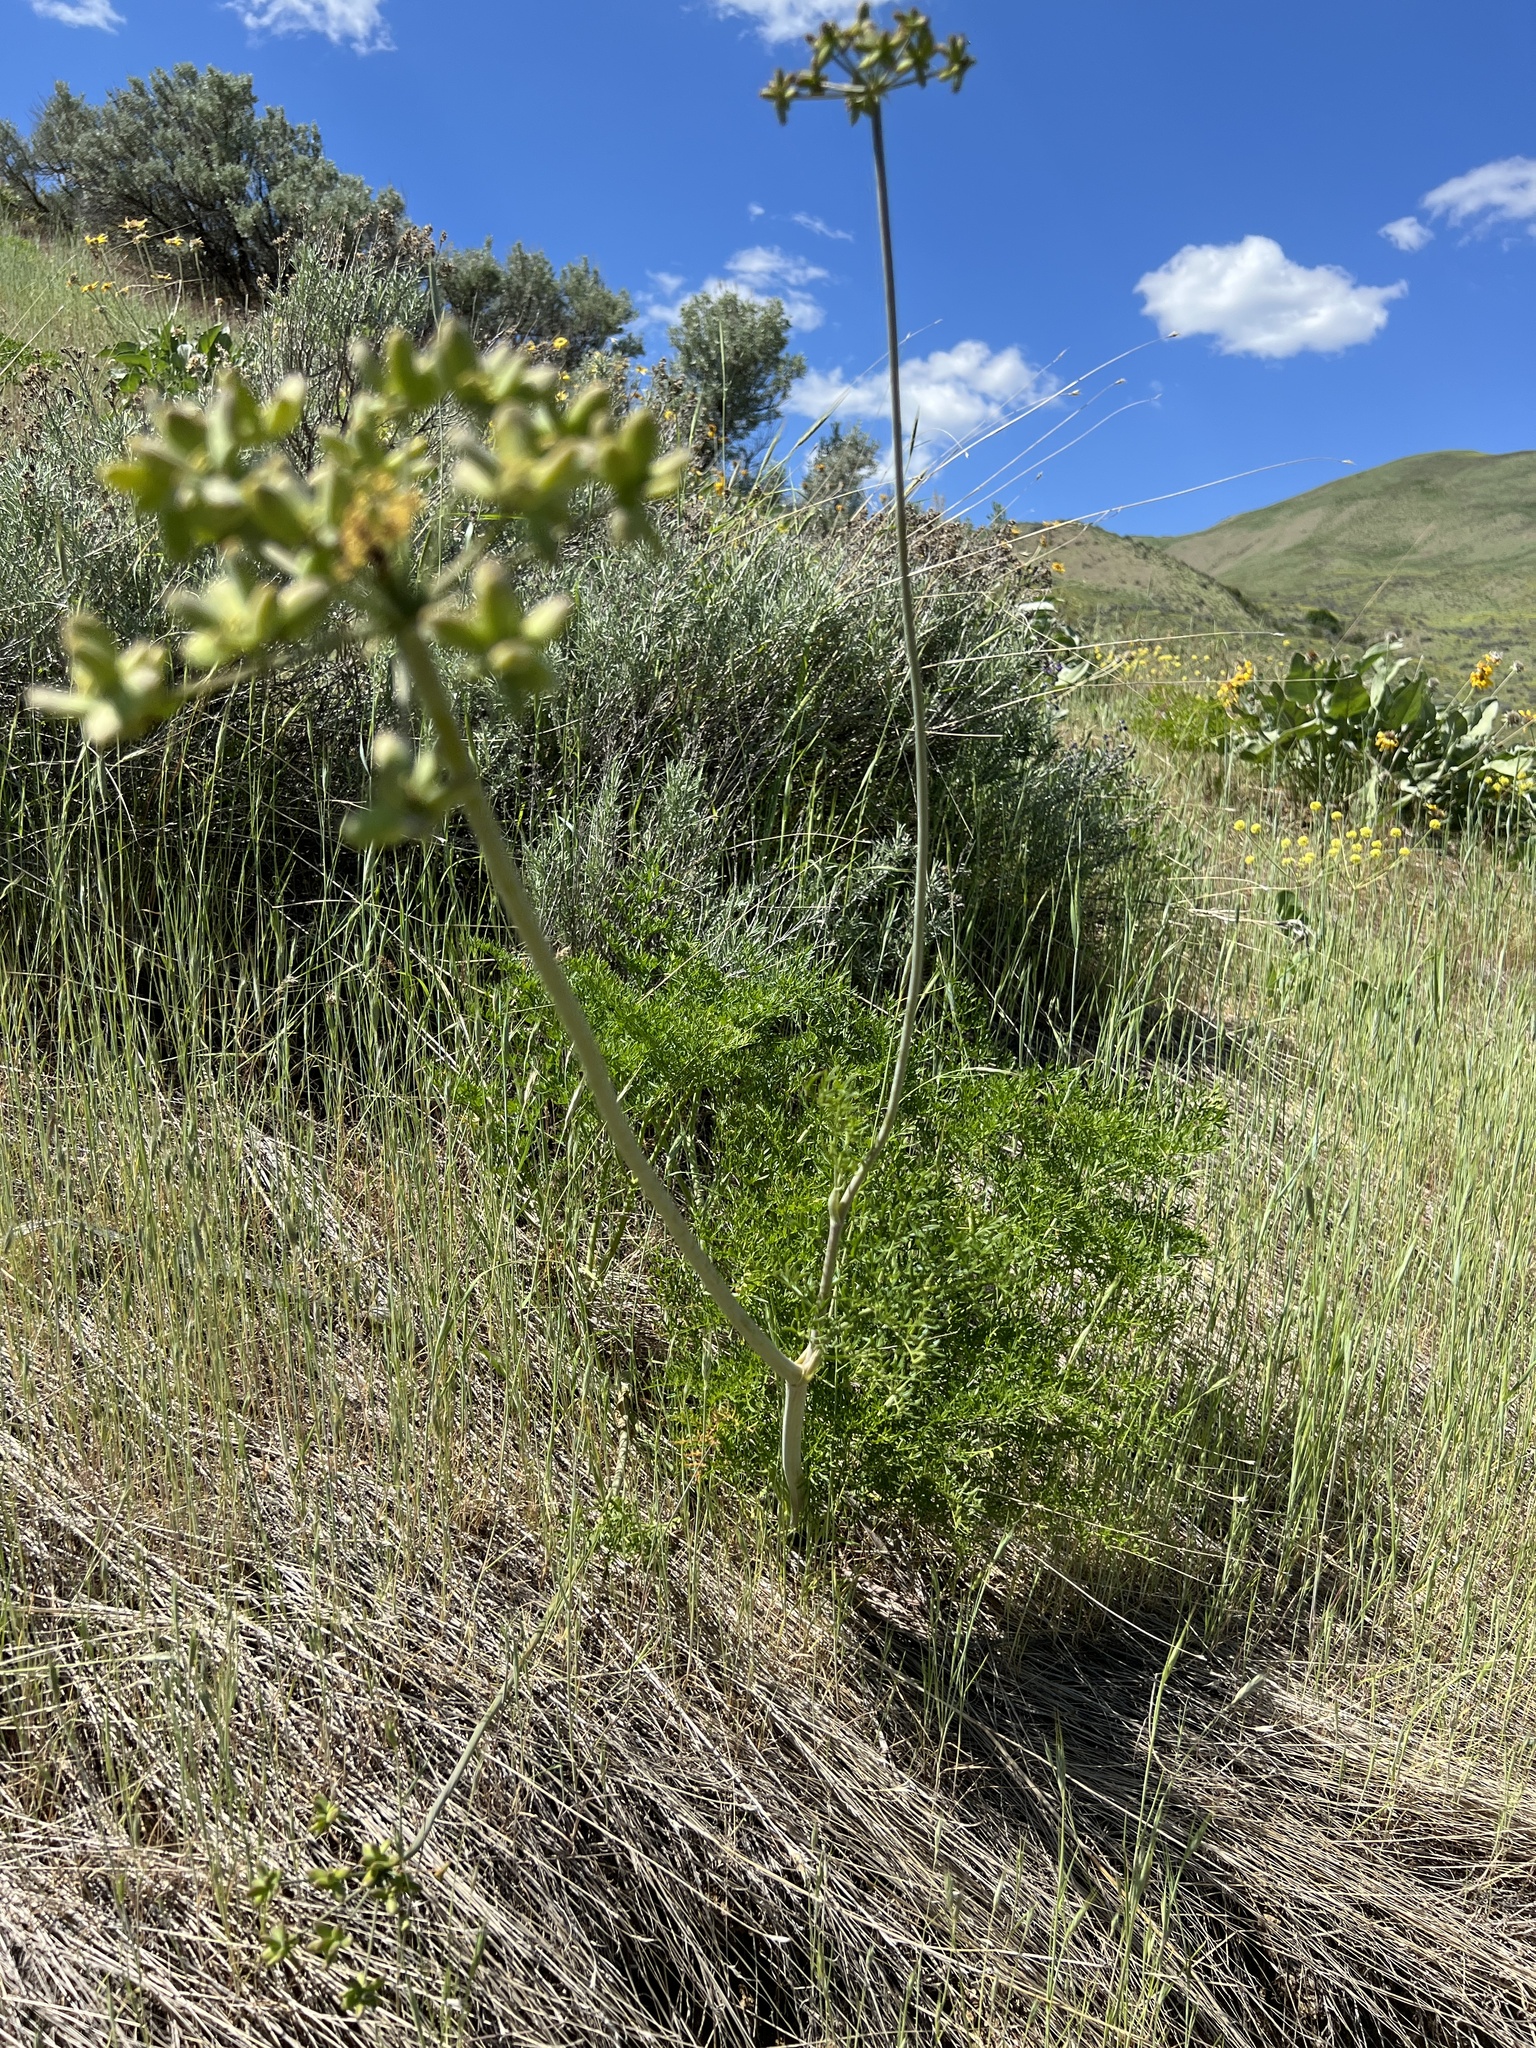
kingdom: Plantae
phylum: Tracheophyta
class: Magnoliopsida
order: Apiales
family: Apiaceae
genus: Lomatium
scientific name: Lomatium dissectum
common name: Lomatium
